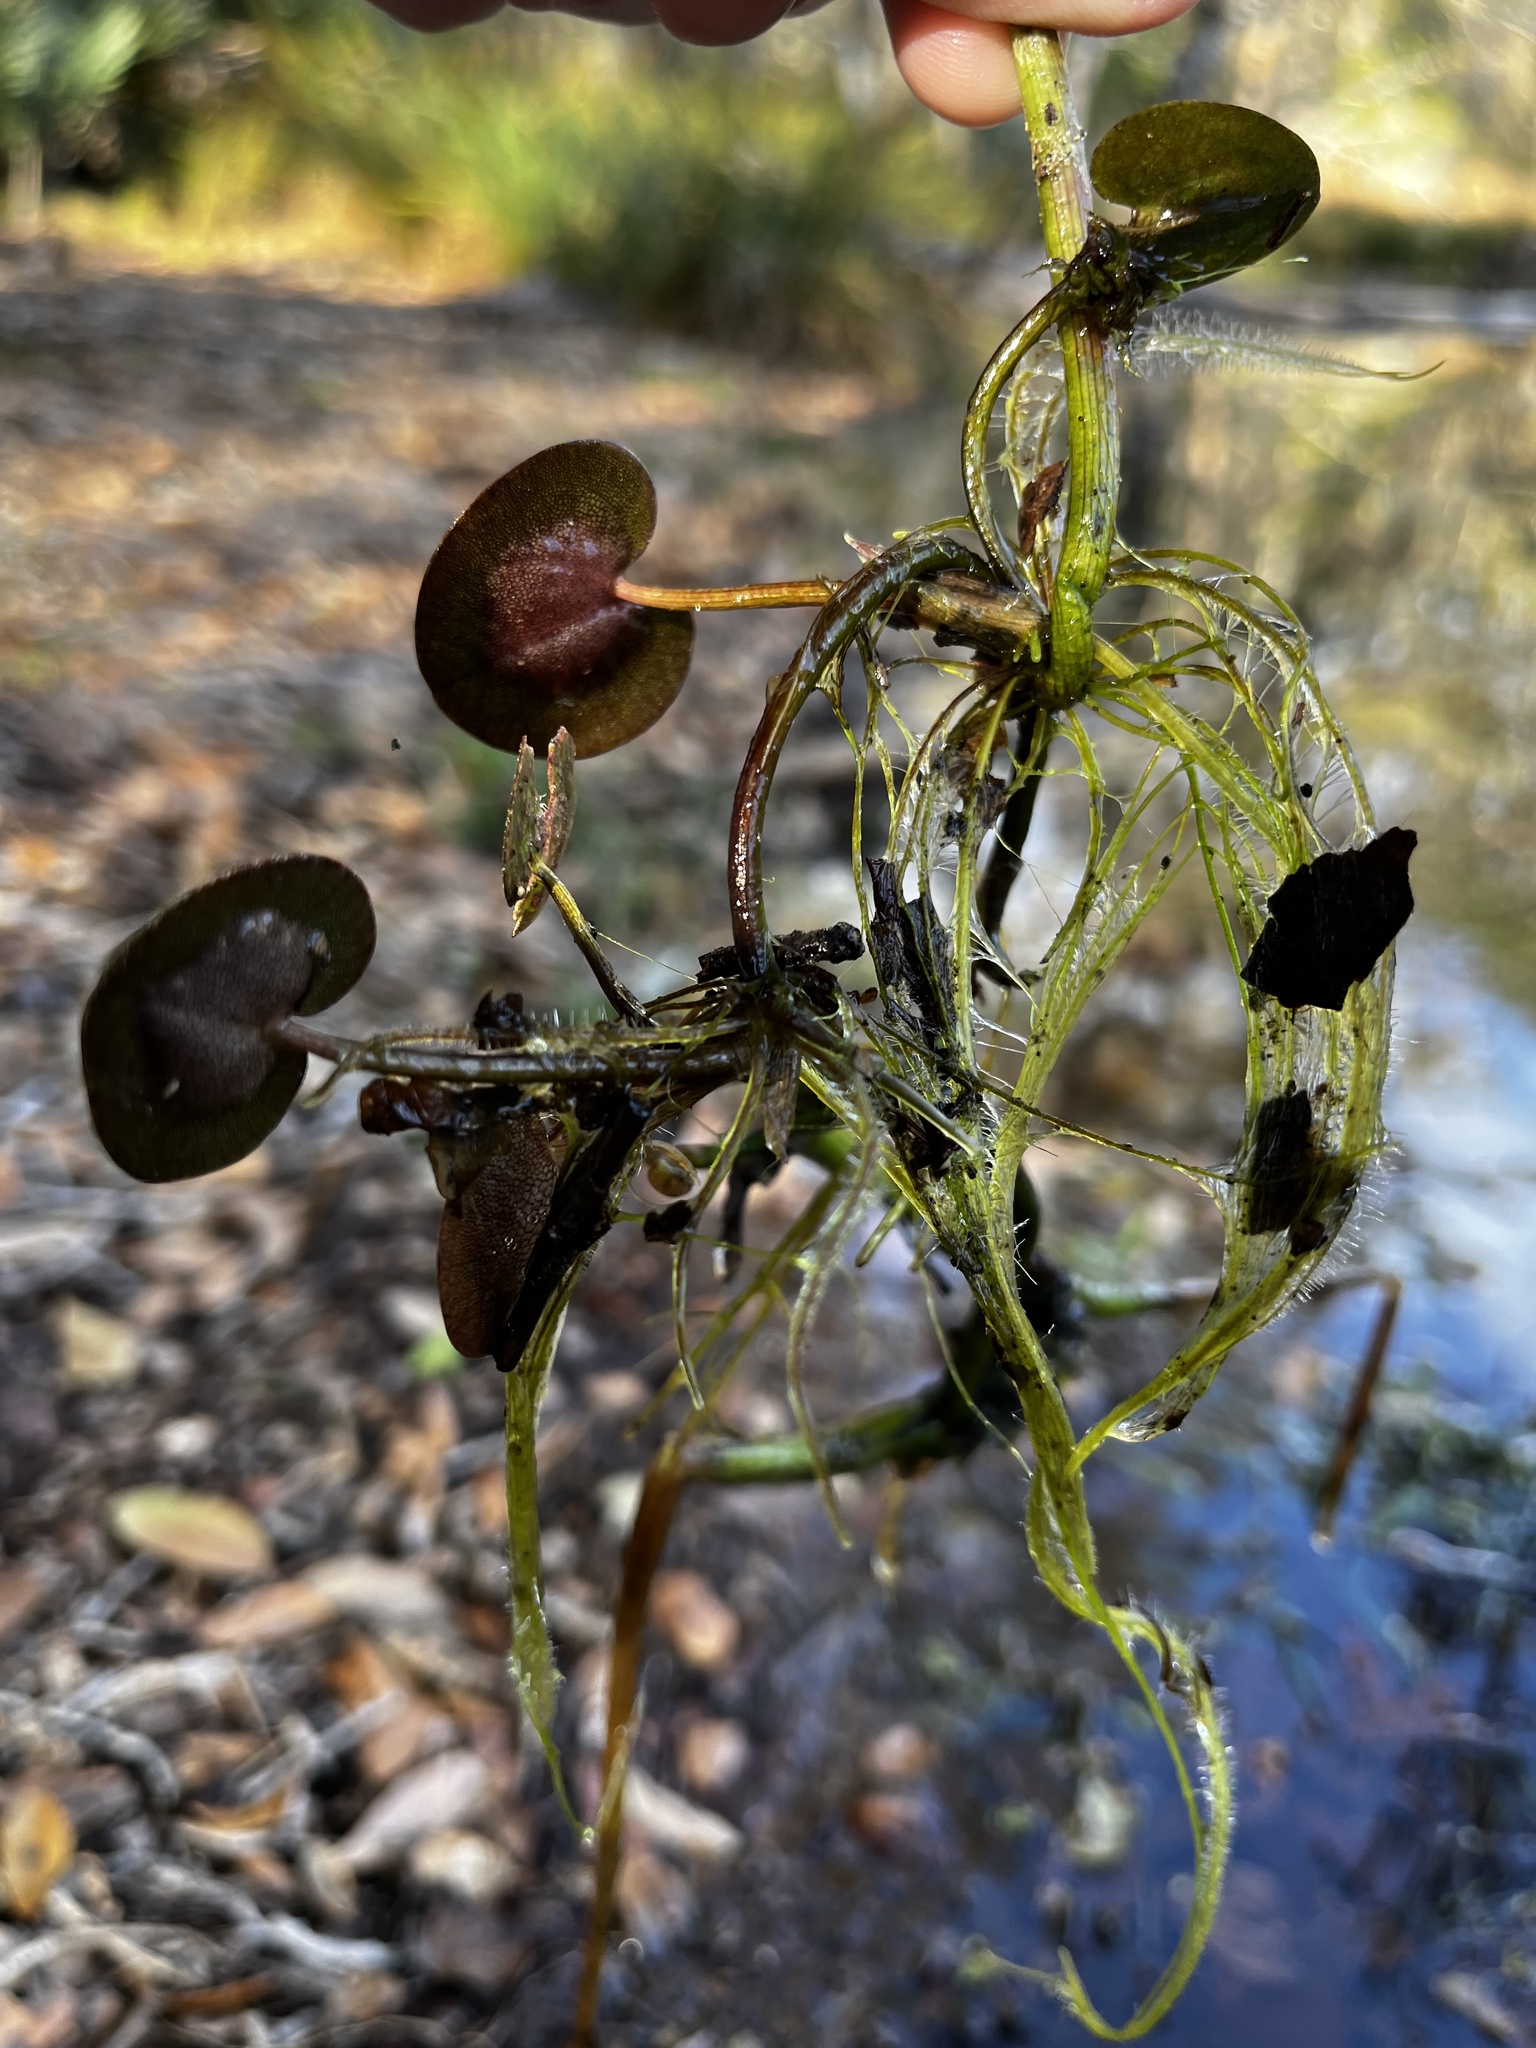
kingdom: Plantae
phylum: Tracheophyta
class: Liliopsida
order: Alismatales
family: Hydrocharitaceae
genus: Hydrocharis
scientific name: Hydrocharis spongia
